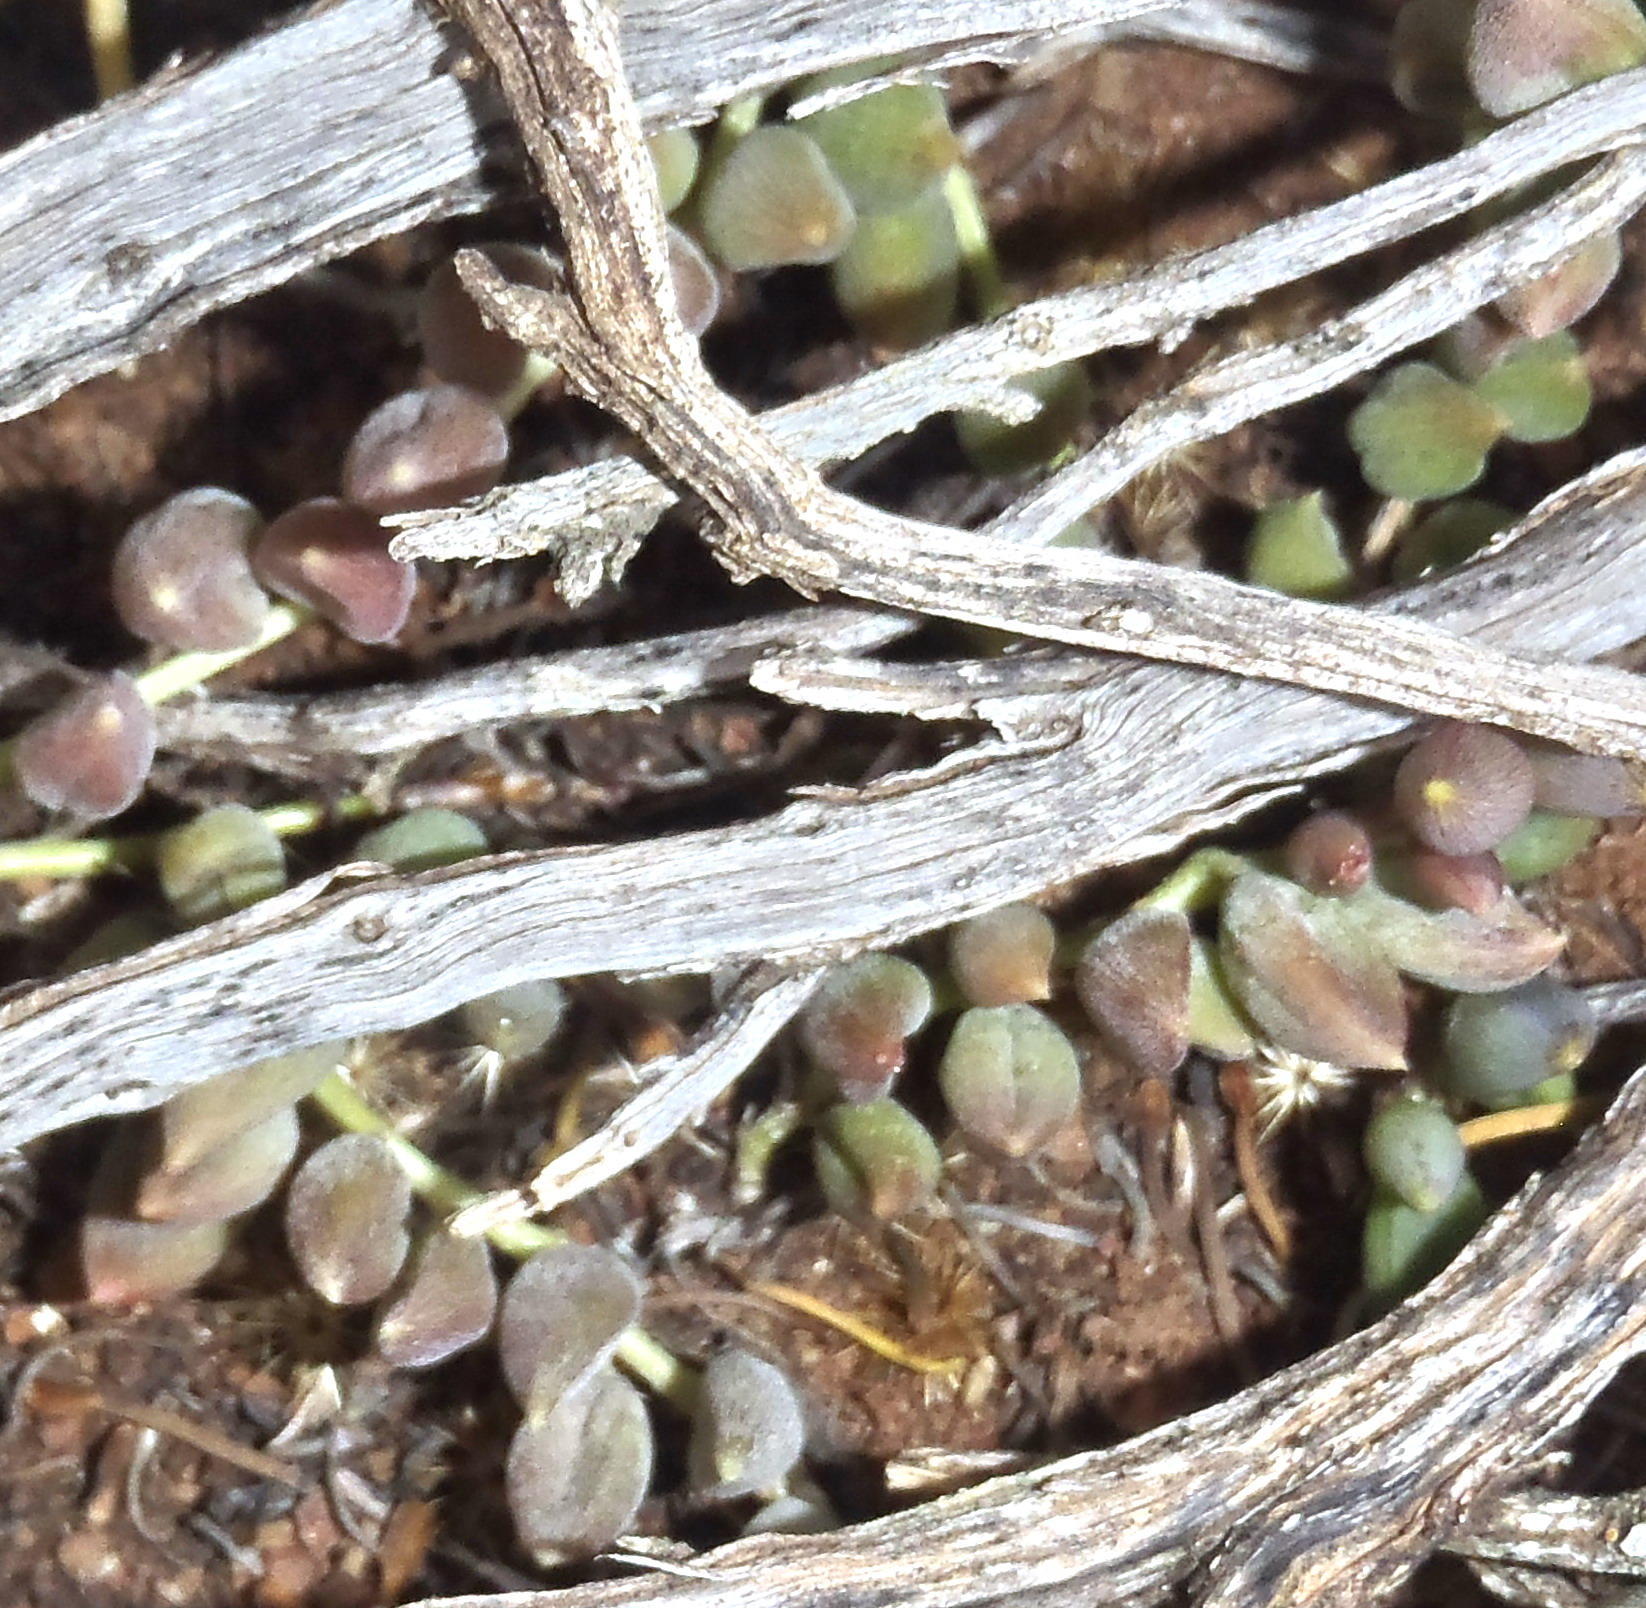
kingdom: Plantae
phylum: Tracheophyta
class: Magnoliopsida
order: Asterales
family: Asteraceae
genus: Curio
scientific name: Curio radicans
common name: Creeping-berry
